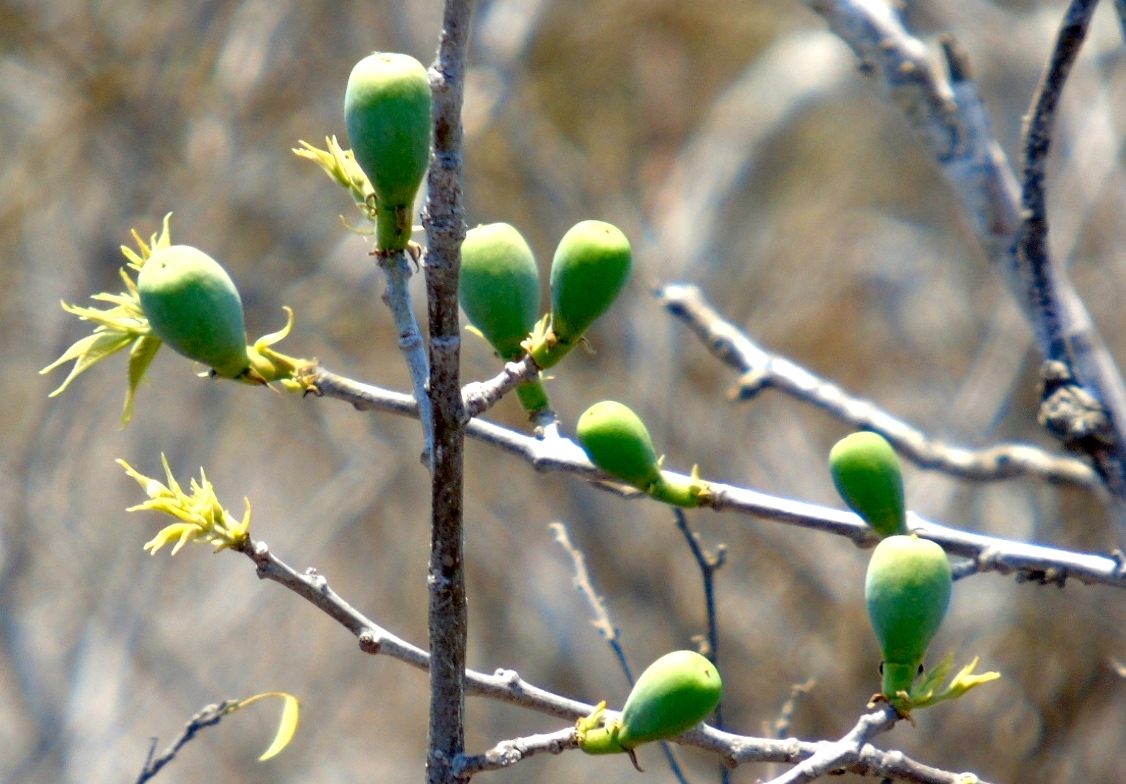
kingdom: Plantae
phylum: Tracheophyta
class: Magnoliopsida
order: Malvales
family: Malvaceae
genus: Ceiba
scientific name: Ceiba aesculifolia
